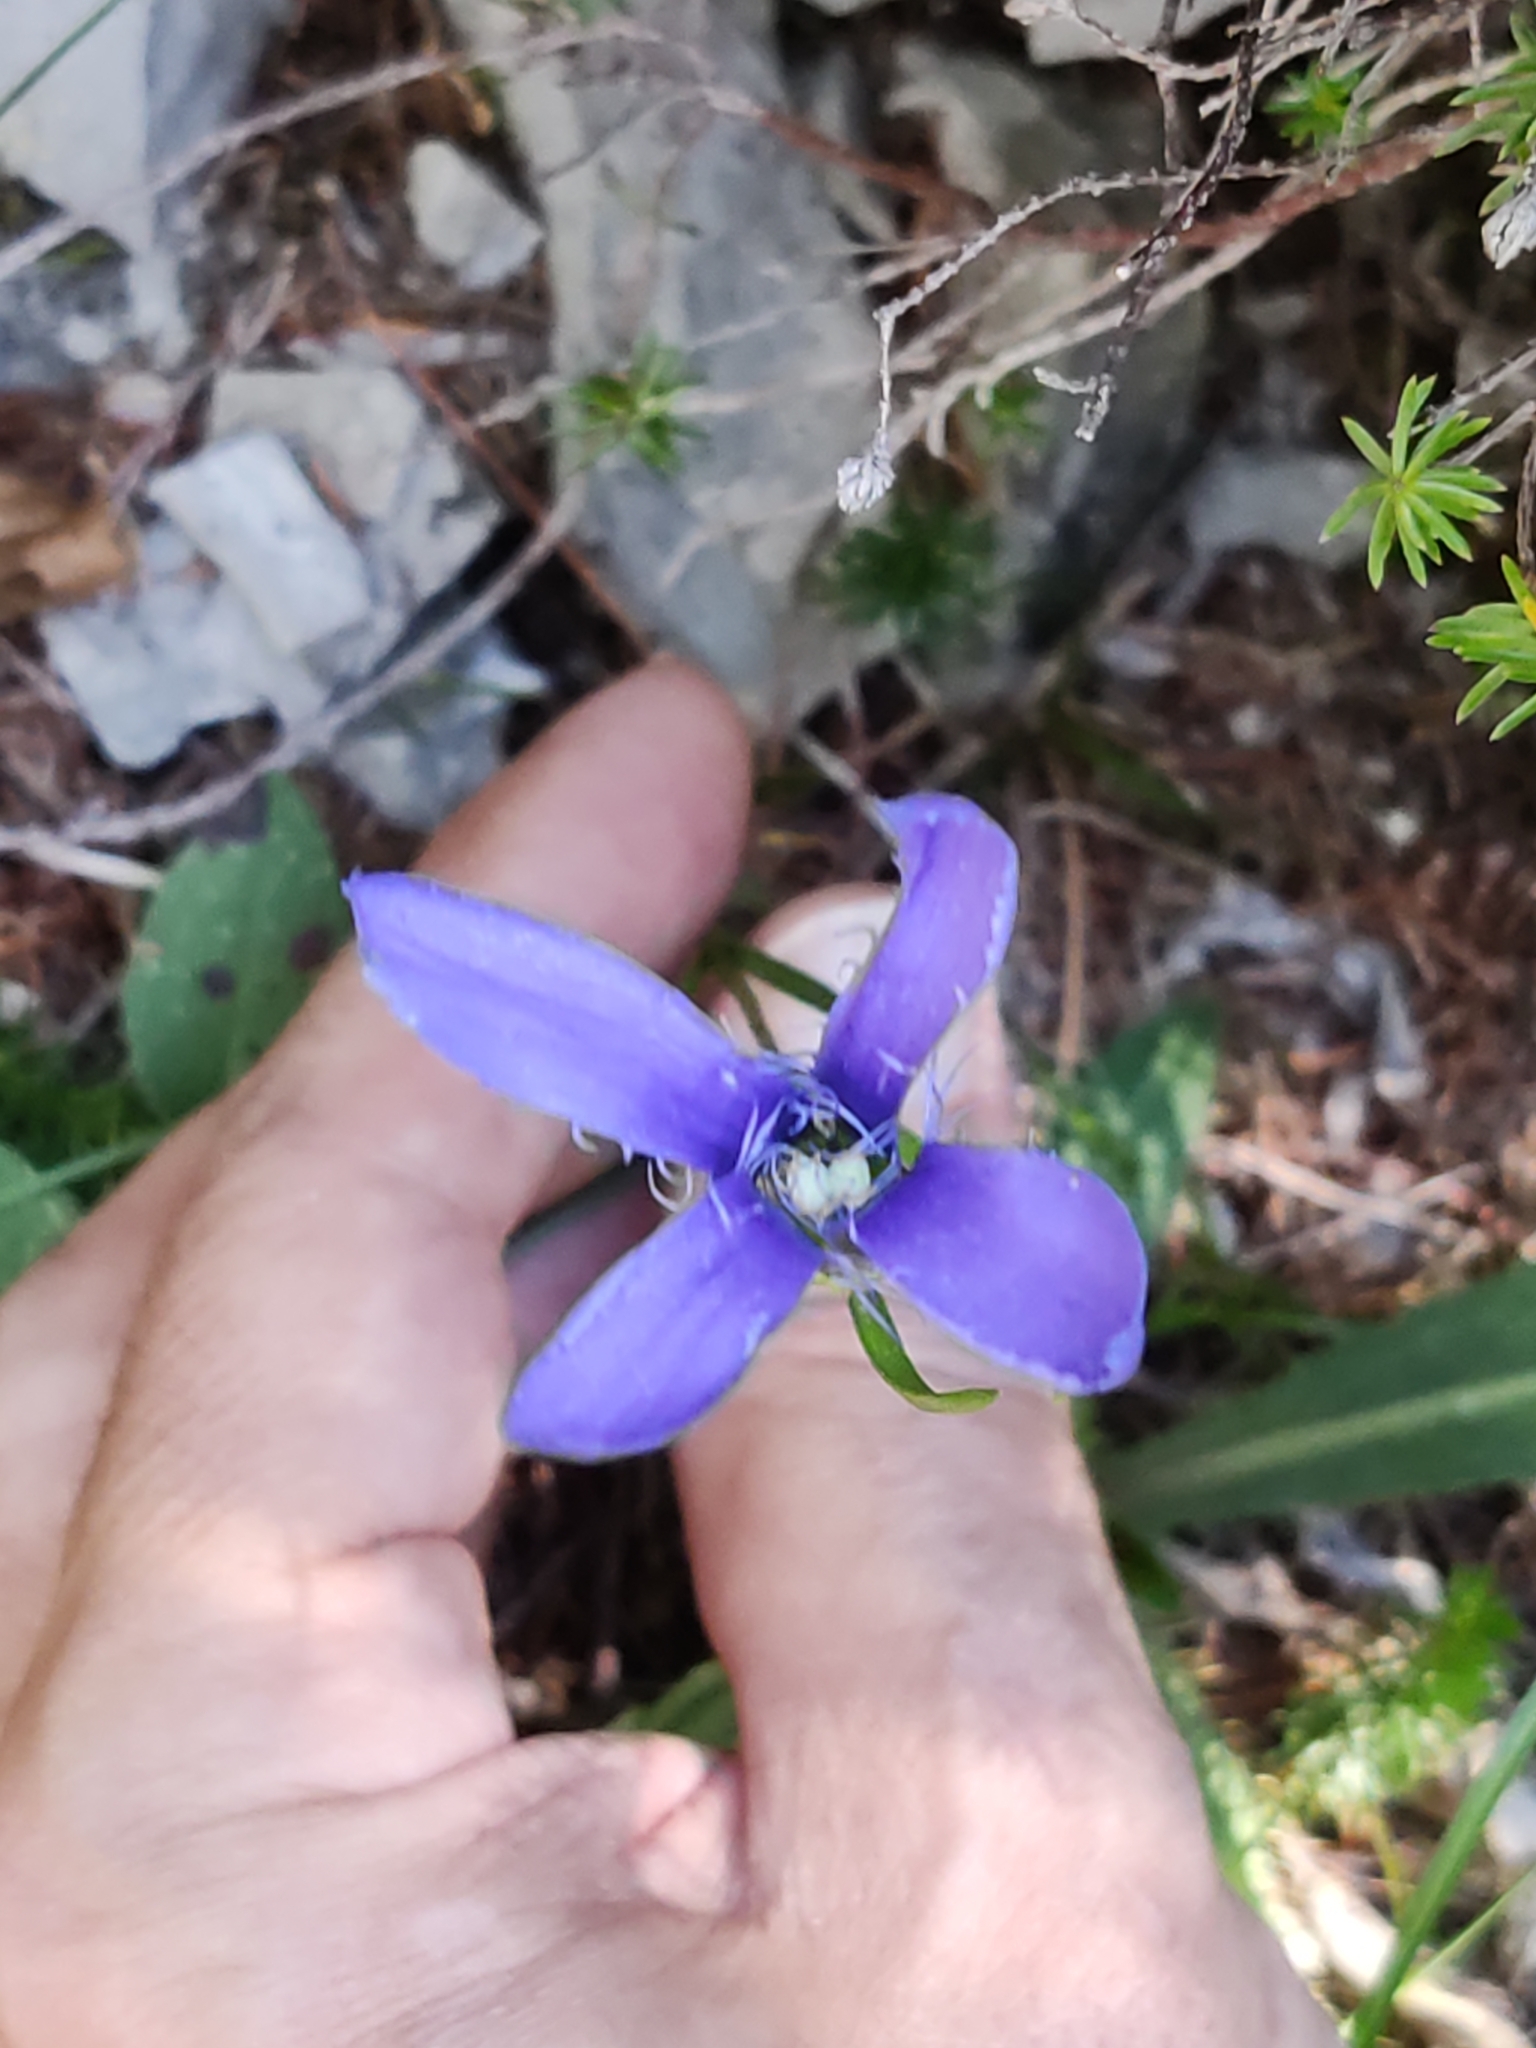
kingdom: Plantae
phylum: Tracheophyta
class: Magnoliopsida
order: Gentianales
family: Gentianaceae
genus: Gentianopsis
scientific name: Gentianopsis ciliata
